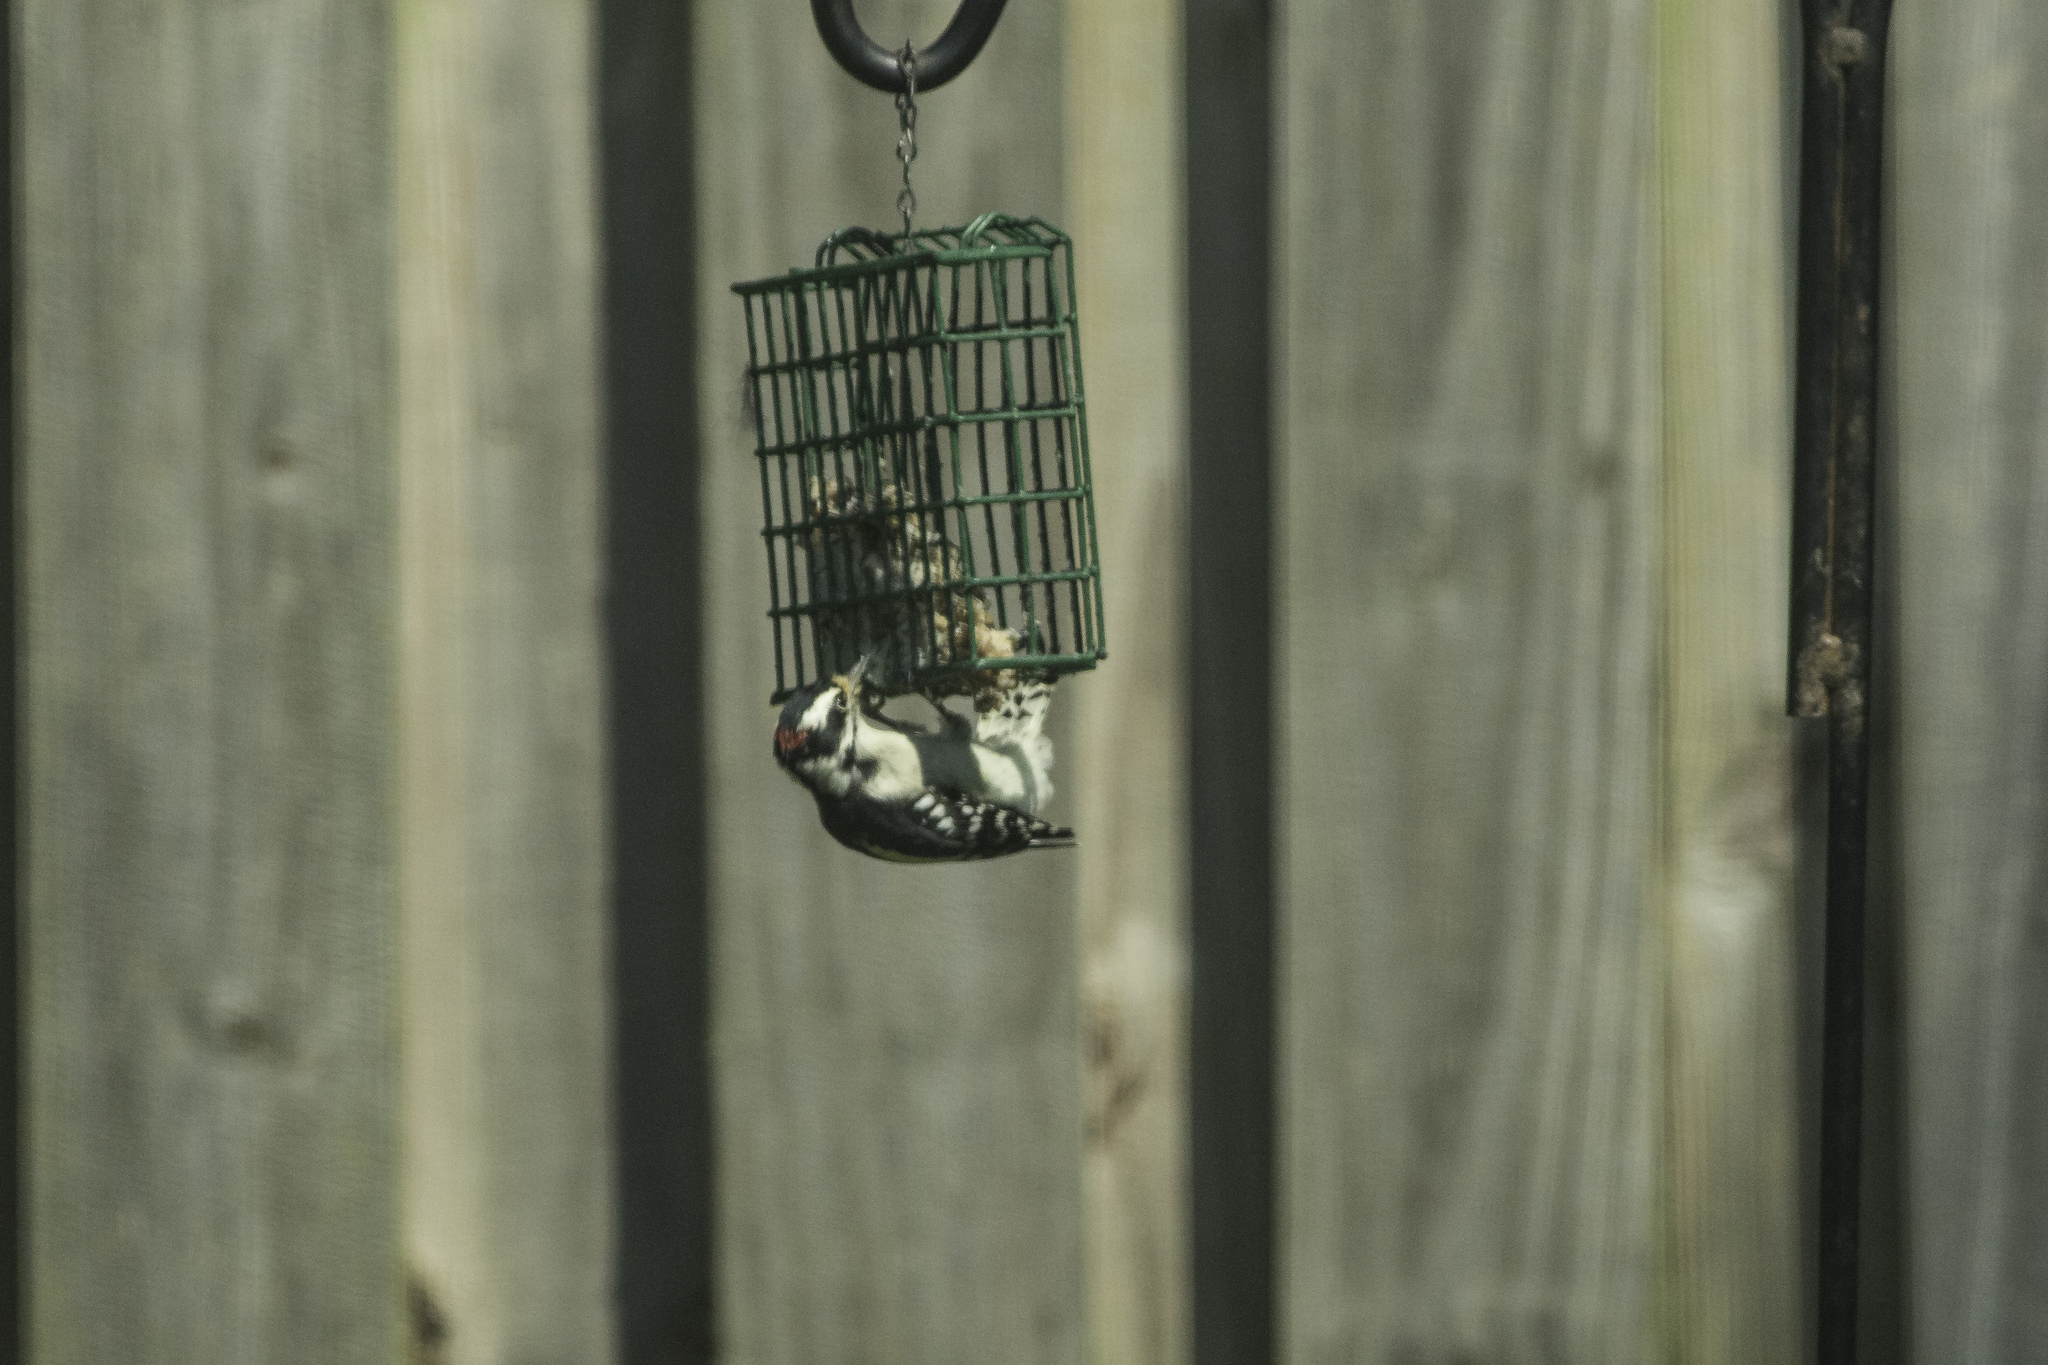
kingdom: Animalia
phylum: Chordata
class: Aves
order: Piciformes
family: Picidae
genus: Dryobates
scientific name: Dryobates pubescens
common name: Downy woodpecker
